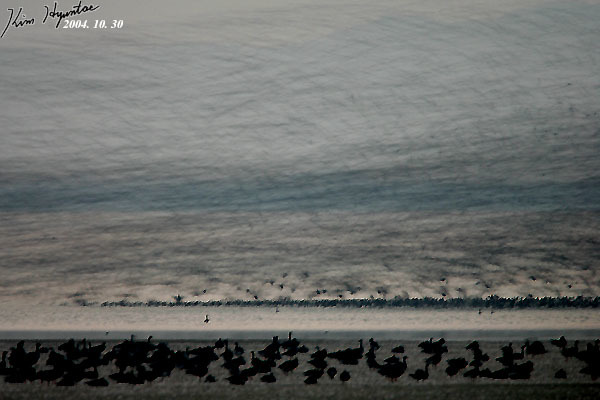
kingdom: Animalia
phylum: Chordata
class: Aves
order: Anseriformes
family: Anatidae
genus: Sibirionetta
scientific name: Sibirionetta formosa
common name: Baikal teal
